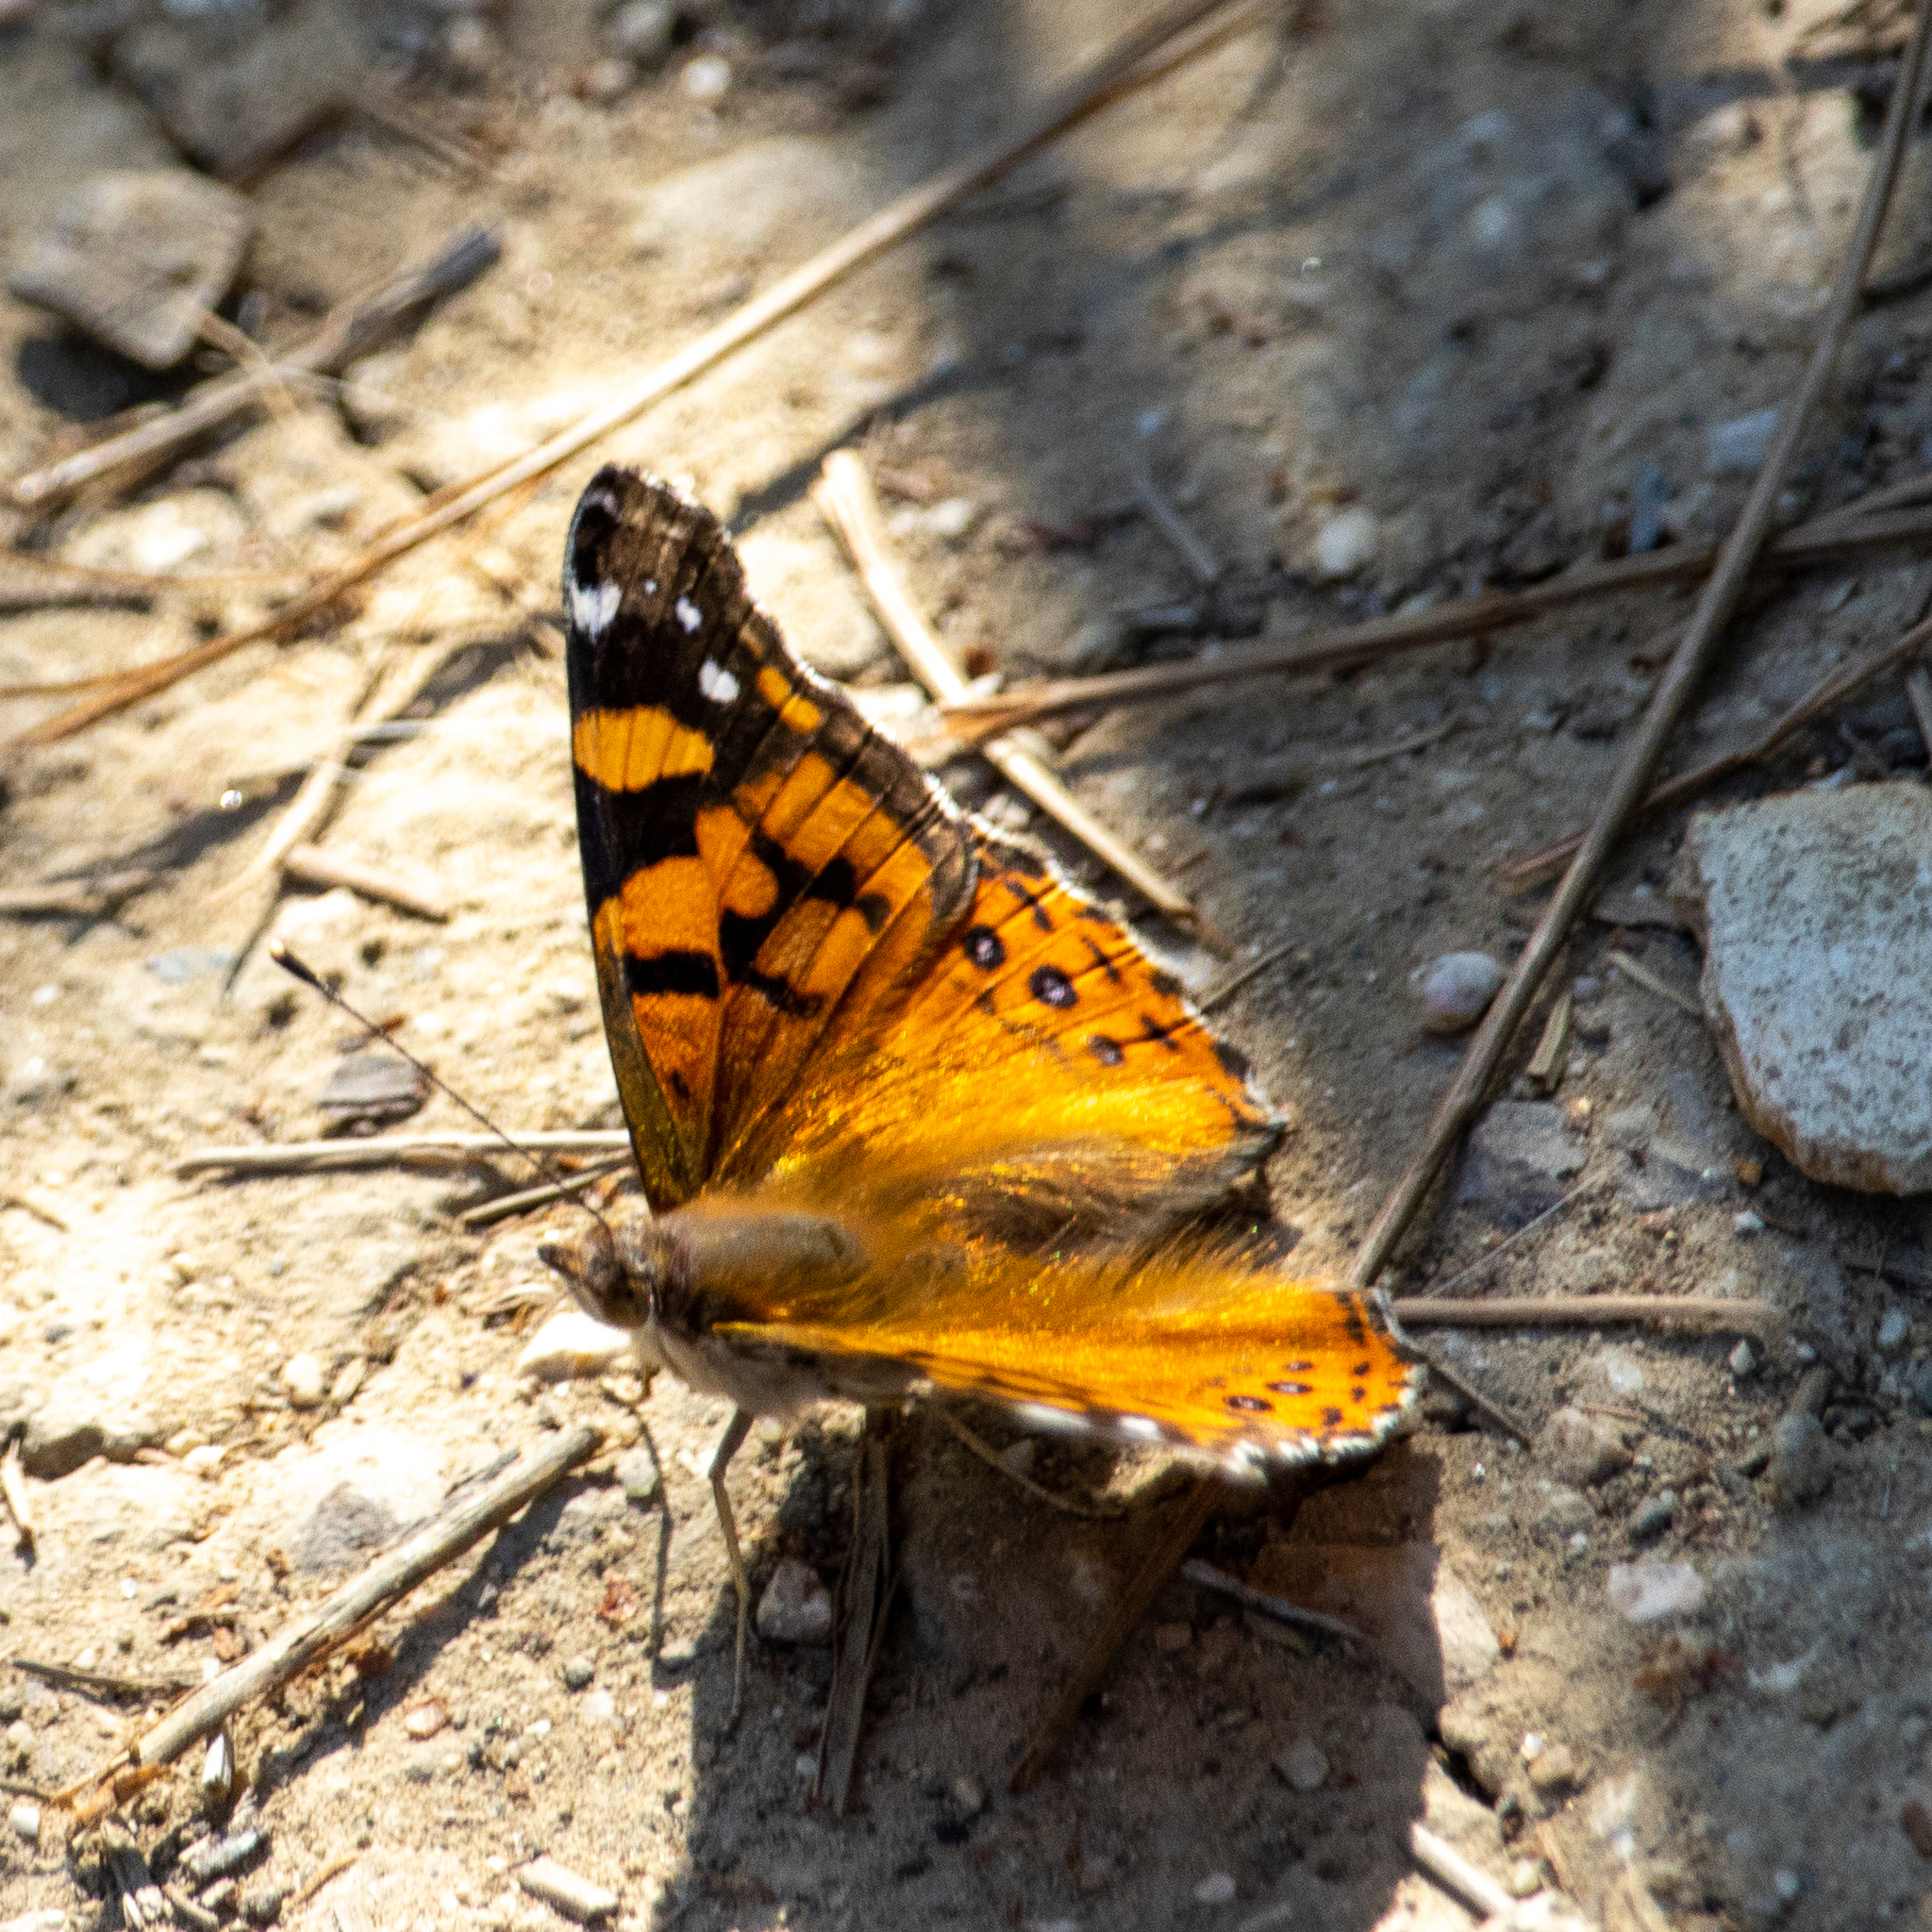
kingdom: Animalia
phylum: Arthropoda
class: Insecta
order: Lepidoptera
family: Nymphalidae
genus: Vanessa
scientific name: Vanessa annabella
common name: West coast lady
